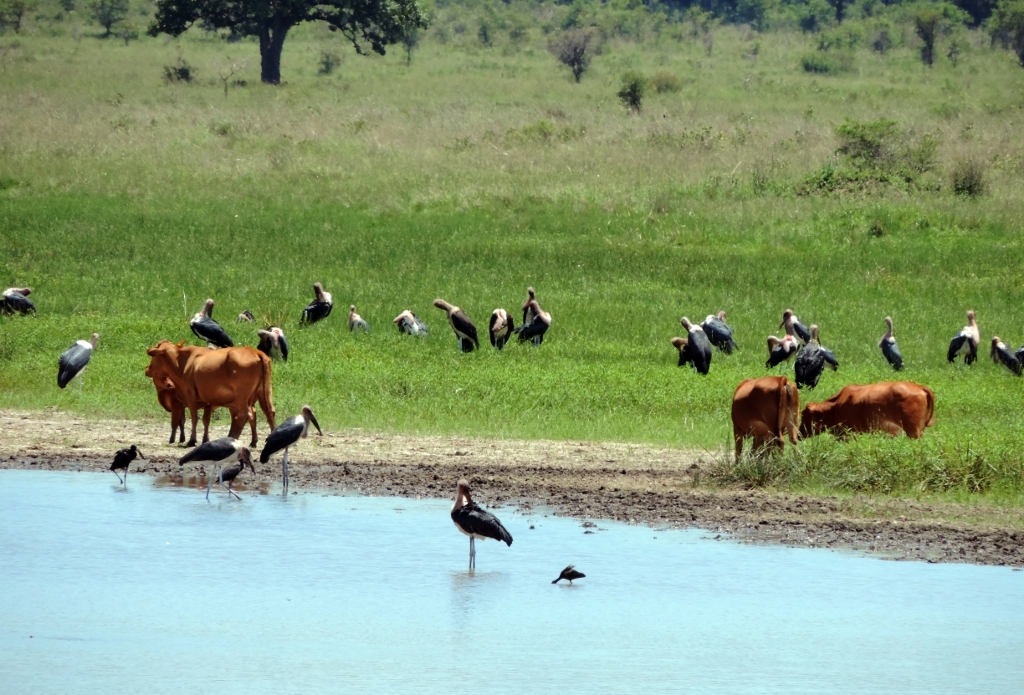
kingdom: Animalia
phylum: Chordata
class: Aves
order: Ciconiiformes
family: Ciconiidae
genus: Leptoptilos
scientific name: Leptoptilos crumenifer
